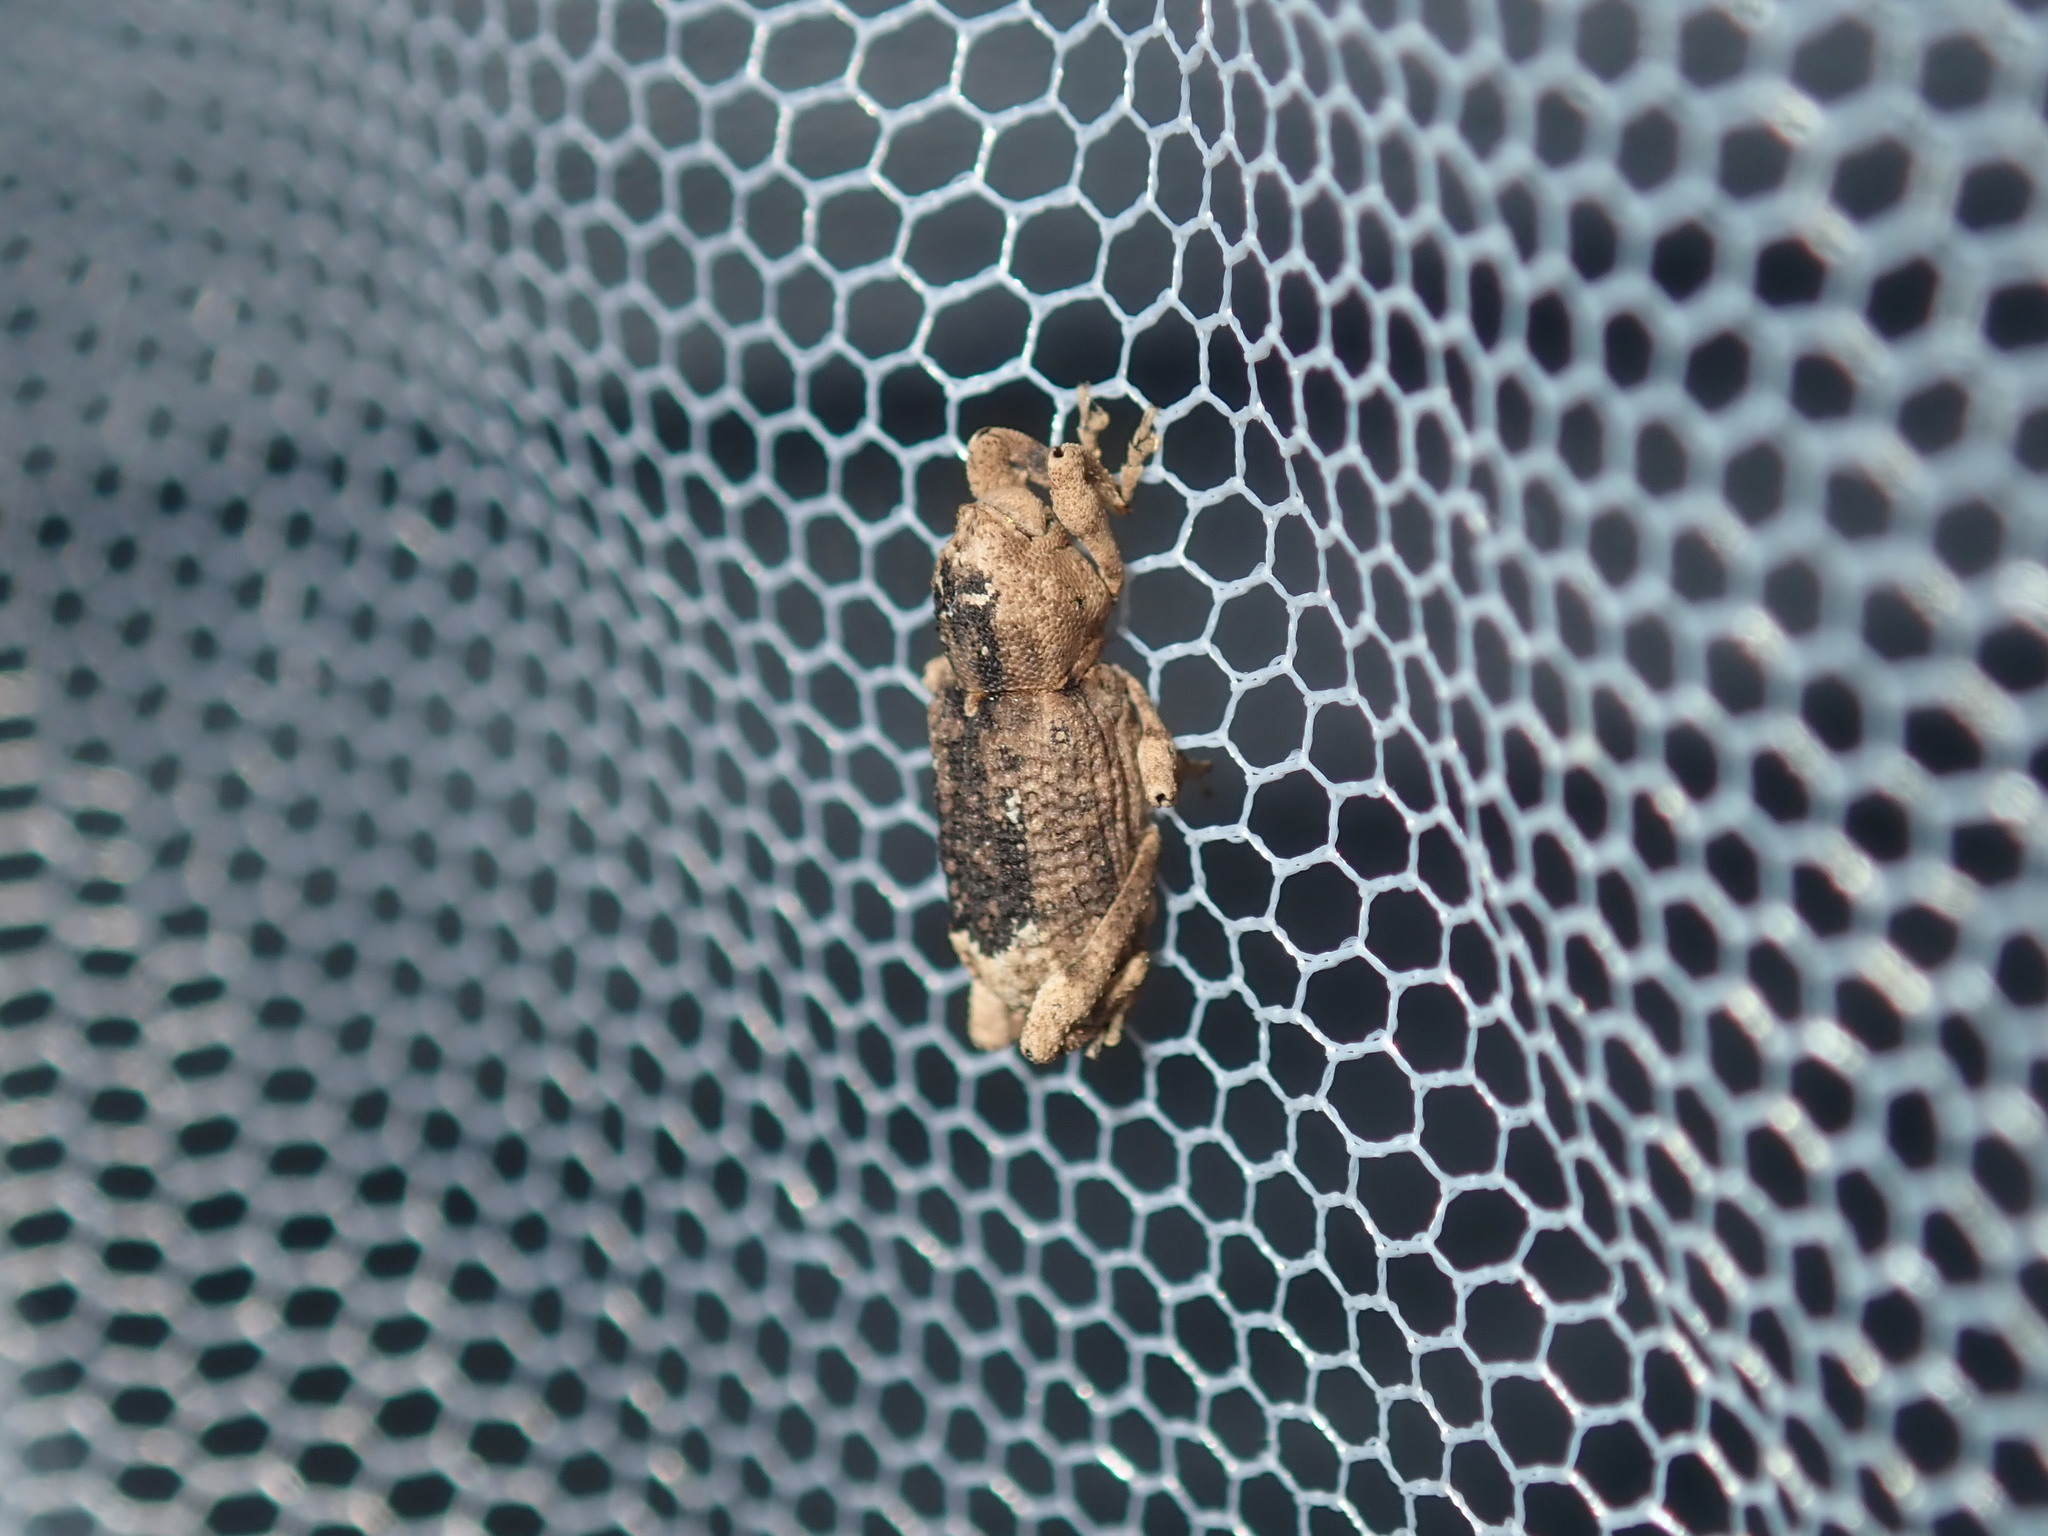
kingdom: Animalia
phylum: Arthropoda
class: Insecta
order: Coleoptera
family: Curculionidae
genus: Camptorhinus
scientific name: Camptorhinus dorsalis
